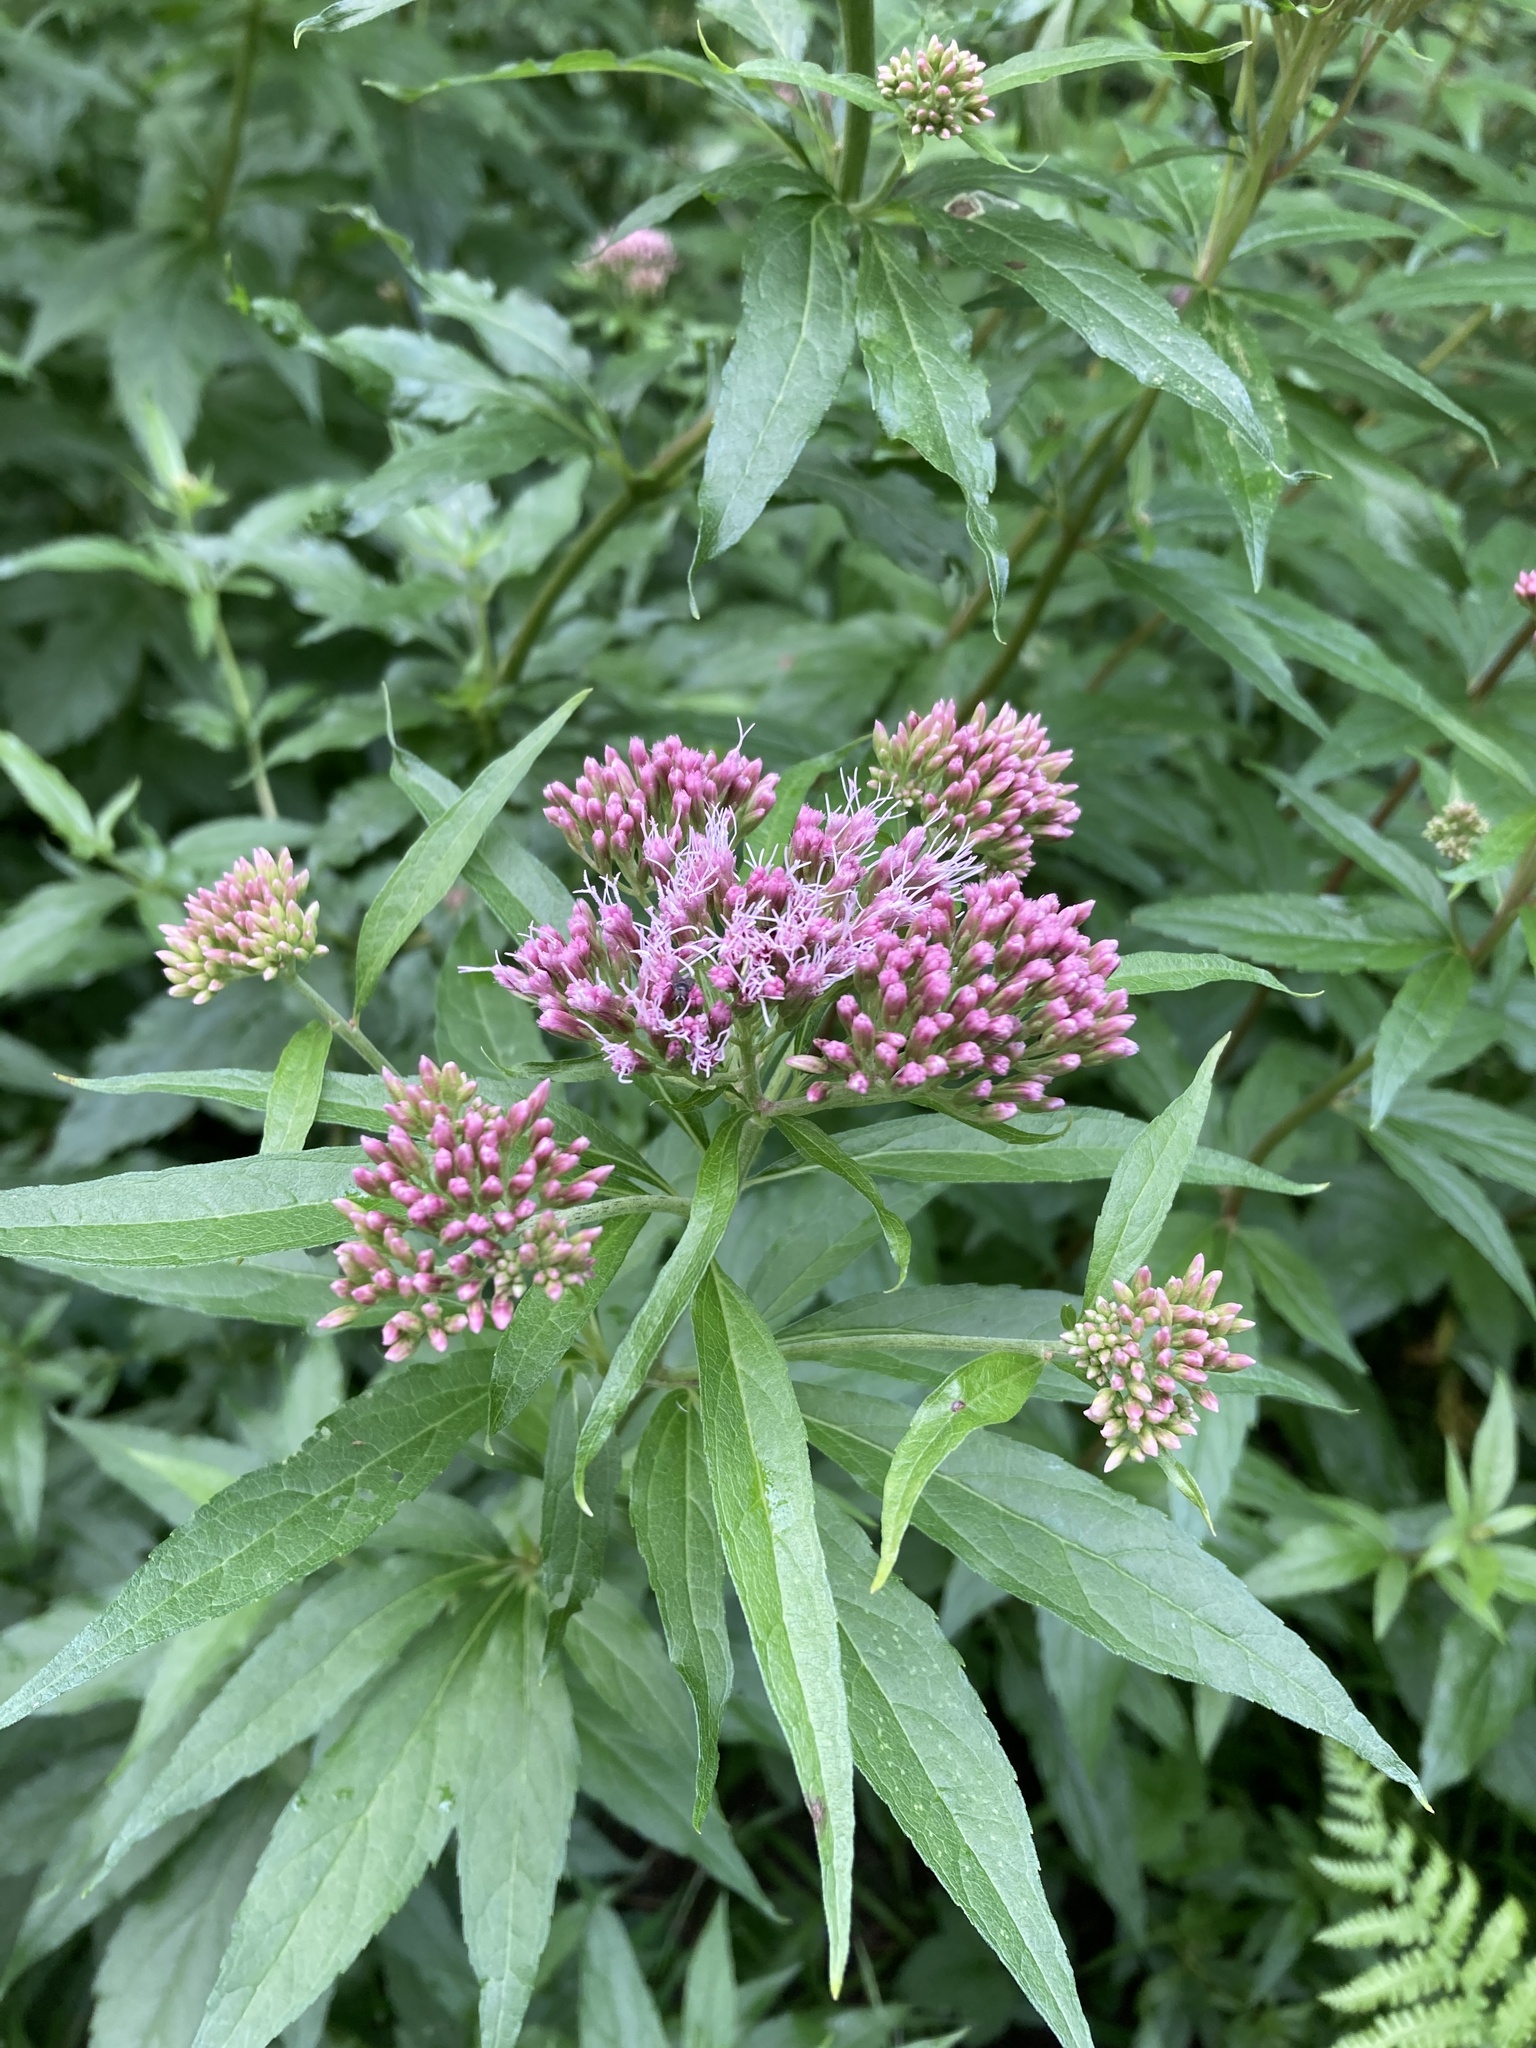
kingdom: Plantae
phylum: Tracheophyta
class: Magnoliopsida
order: Asterales
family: Asteraceae
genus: Eupatorium
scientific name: Eupatorium cannabinum
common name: Hemp-agrimony
